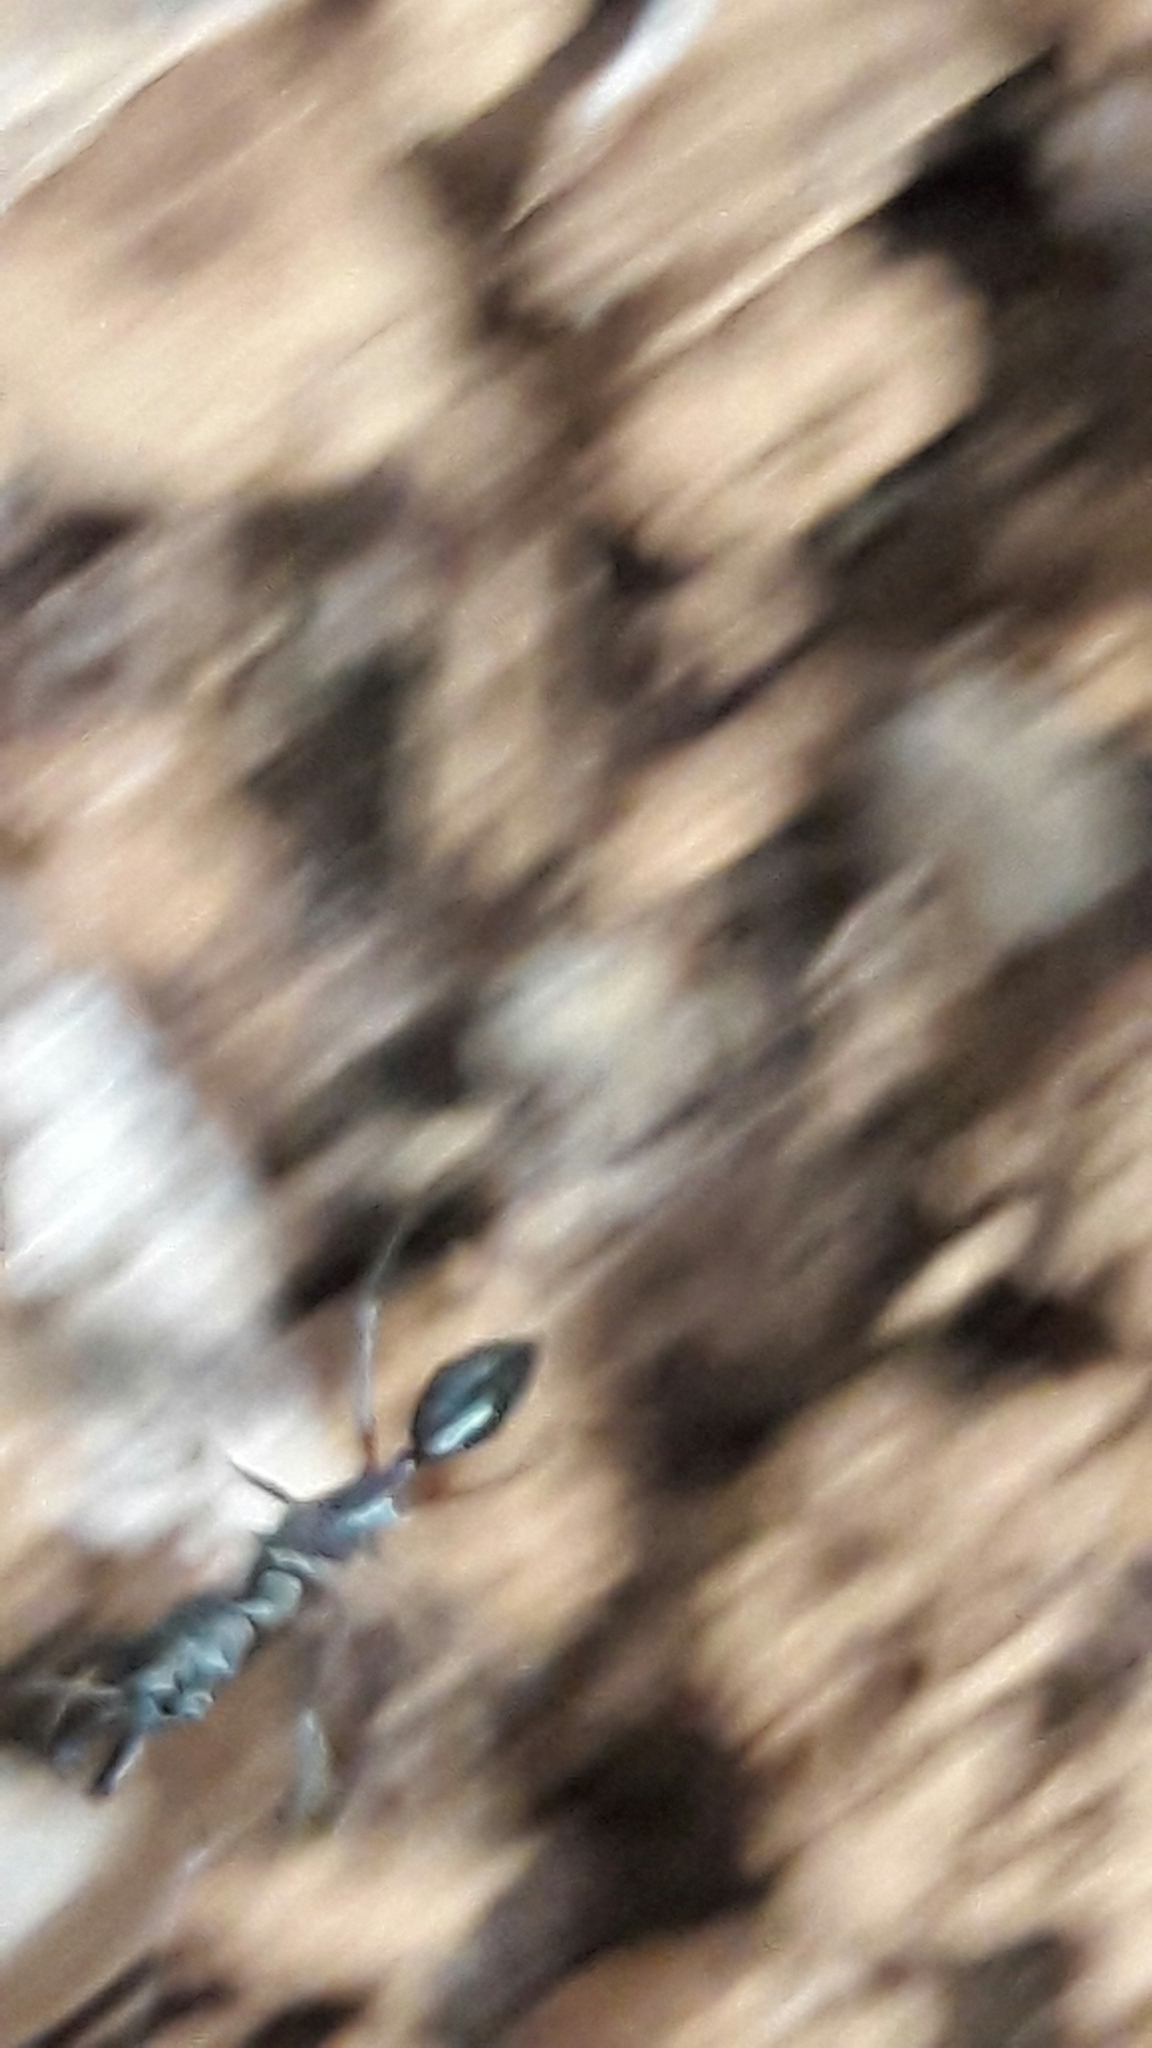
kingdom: Animalia
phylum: Arthropoda
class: Insecta
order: Hymenoptera
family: Formicidae
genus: Odontomachus
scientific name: Odontomachus chelifer
